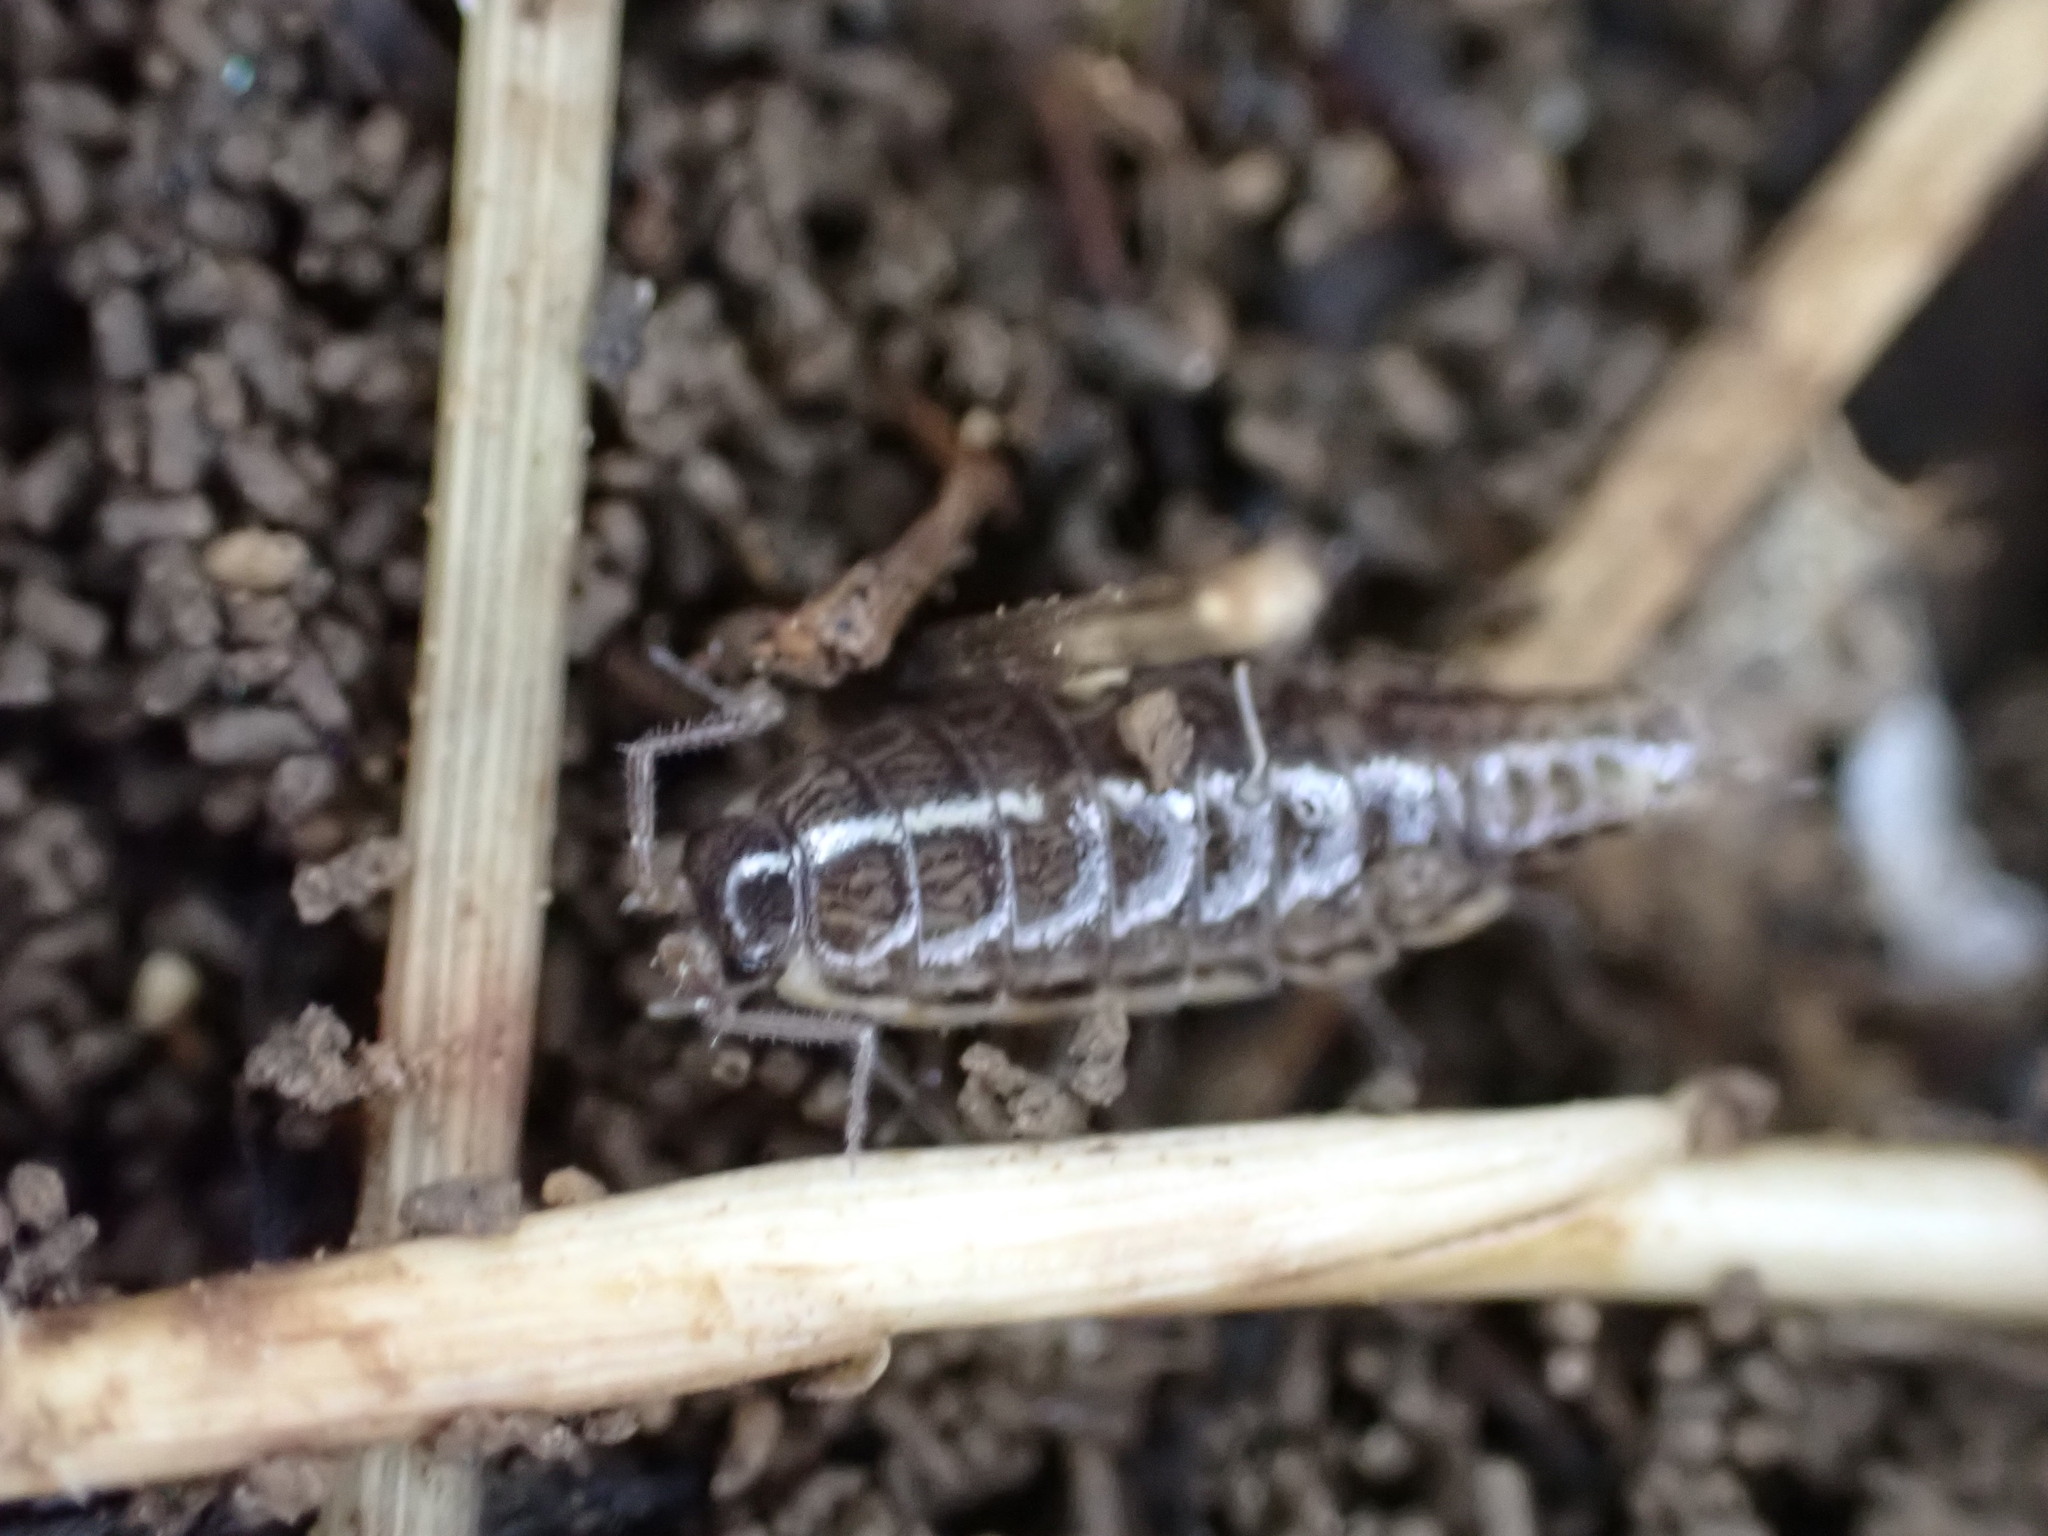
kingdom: Animalia
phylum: Arthropoda
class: Malacostraca
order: Isopoda
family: Philosciidae
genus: Chaetophiloscia
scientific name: Chaetophiloscia elongata
